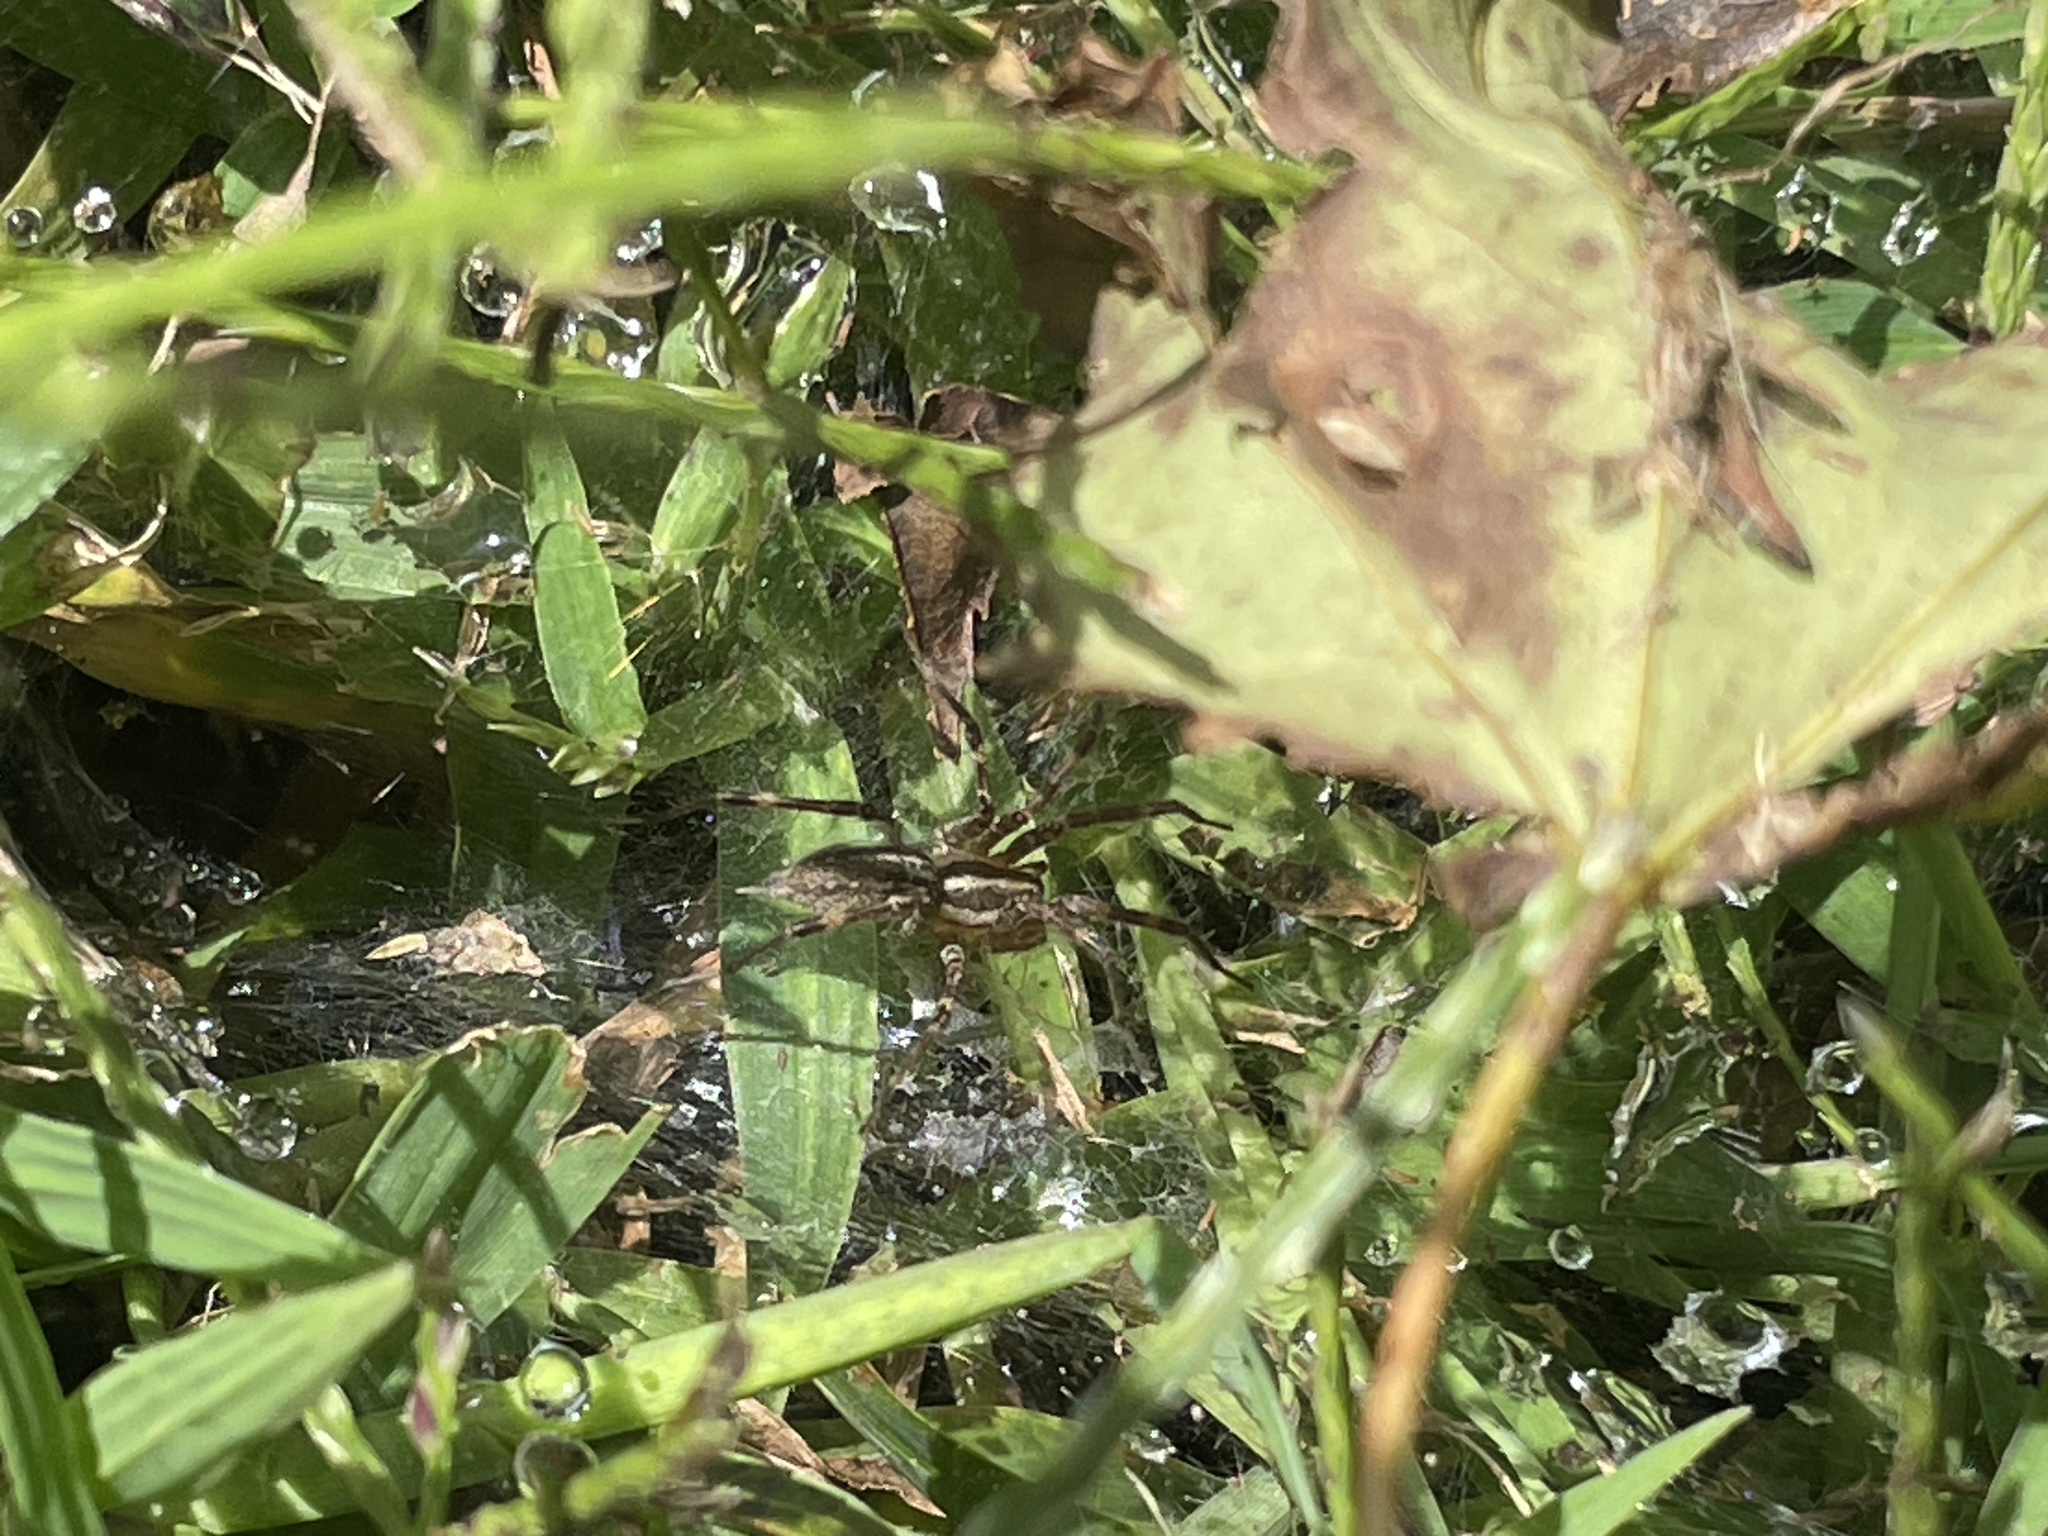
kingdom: Animalia
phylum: Arthropoda
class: Arachnida
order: Araneae
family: Agelenidae
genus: Agelenopsis
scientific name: Agelenopsis
